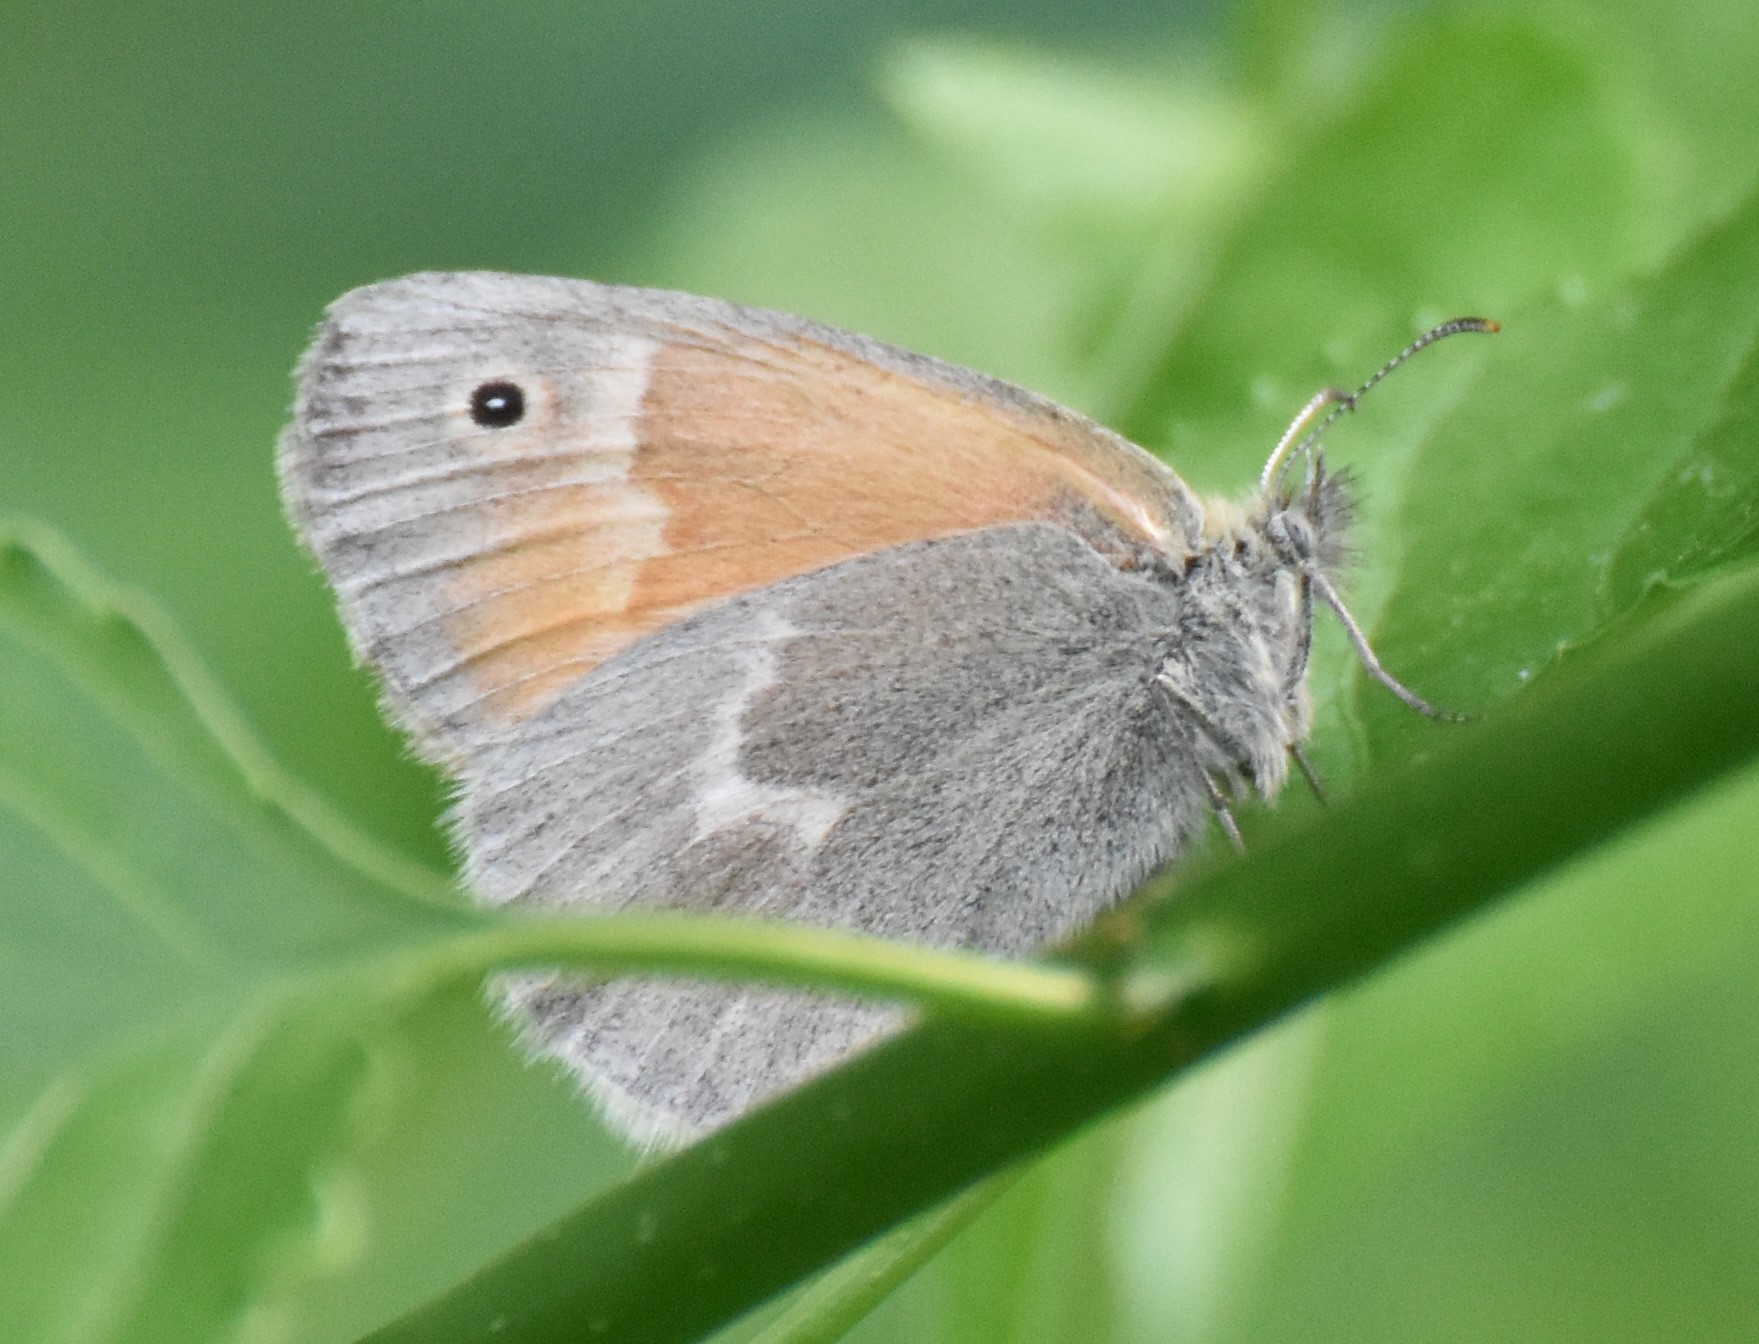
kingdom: Animalia
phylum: Arthropoda
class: Insecta
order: Lepidoptera
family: Nymphalidae
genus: Coenonympha
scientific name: Coenonympha california
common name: Common ringlet
